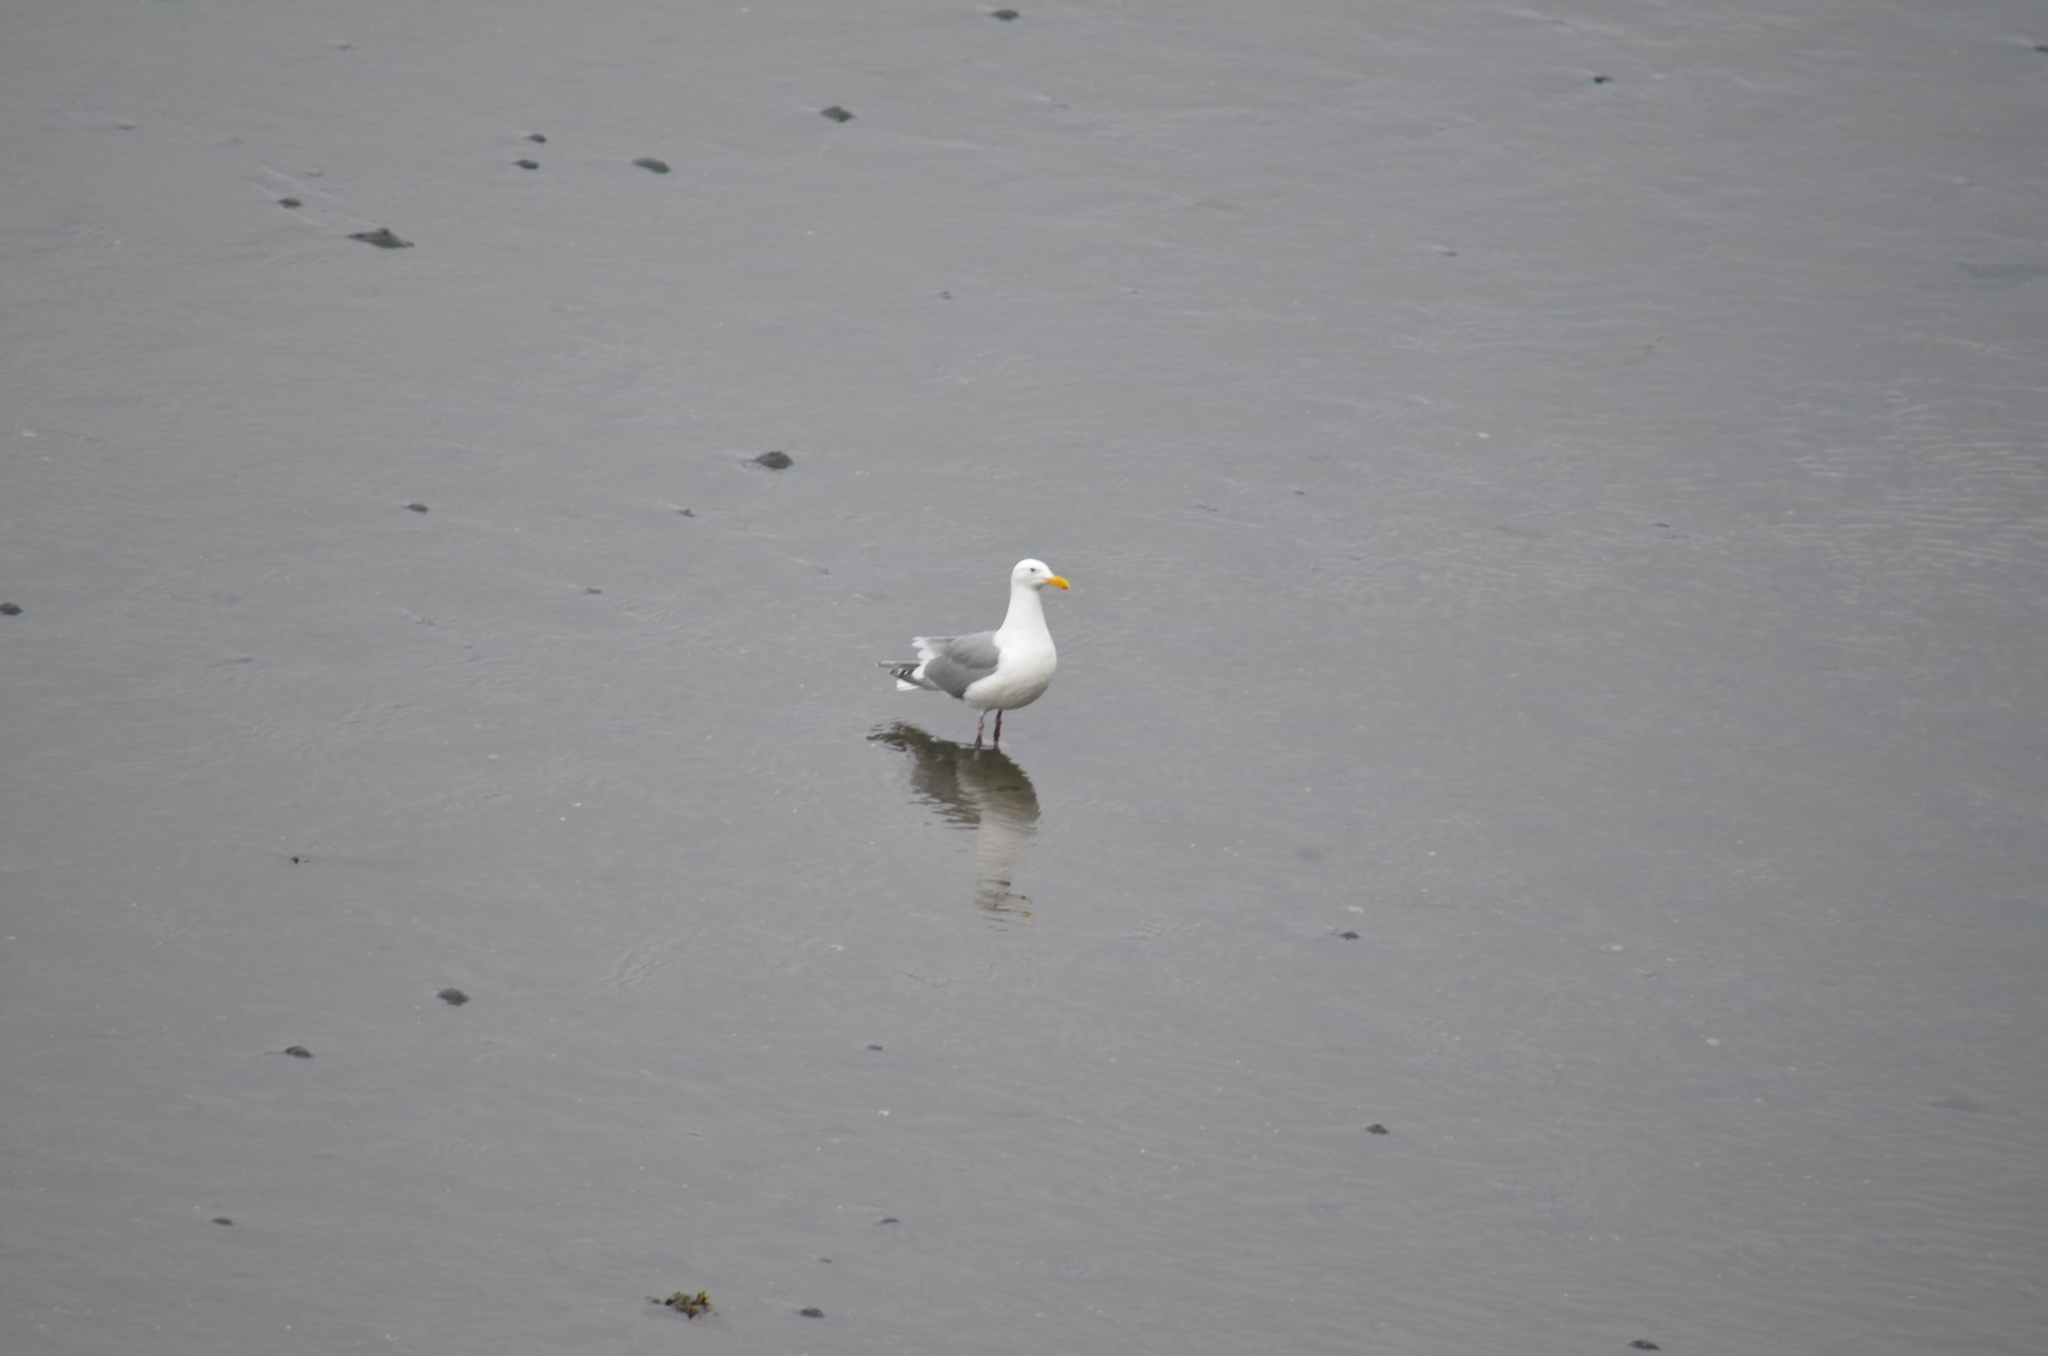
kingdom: Animalia
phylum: Chordata
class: Aves
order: Charadriiformes
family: Laridae
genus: Larus
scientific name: Larus
